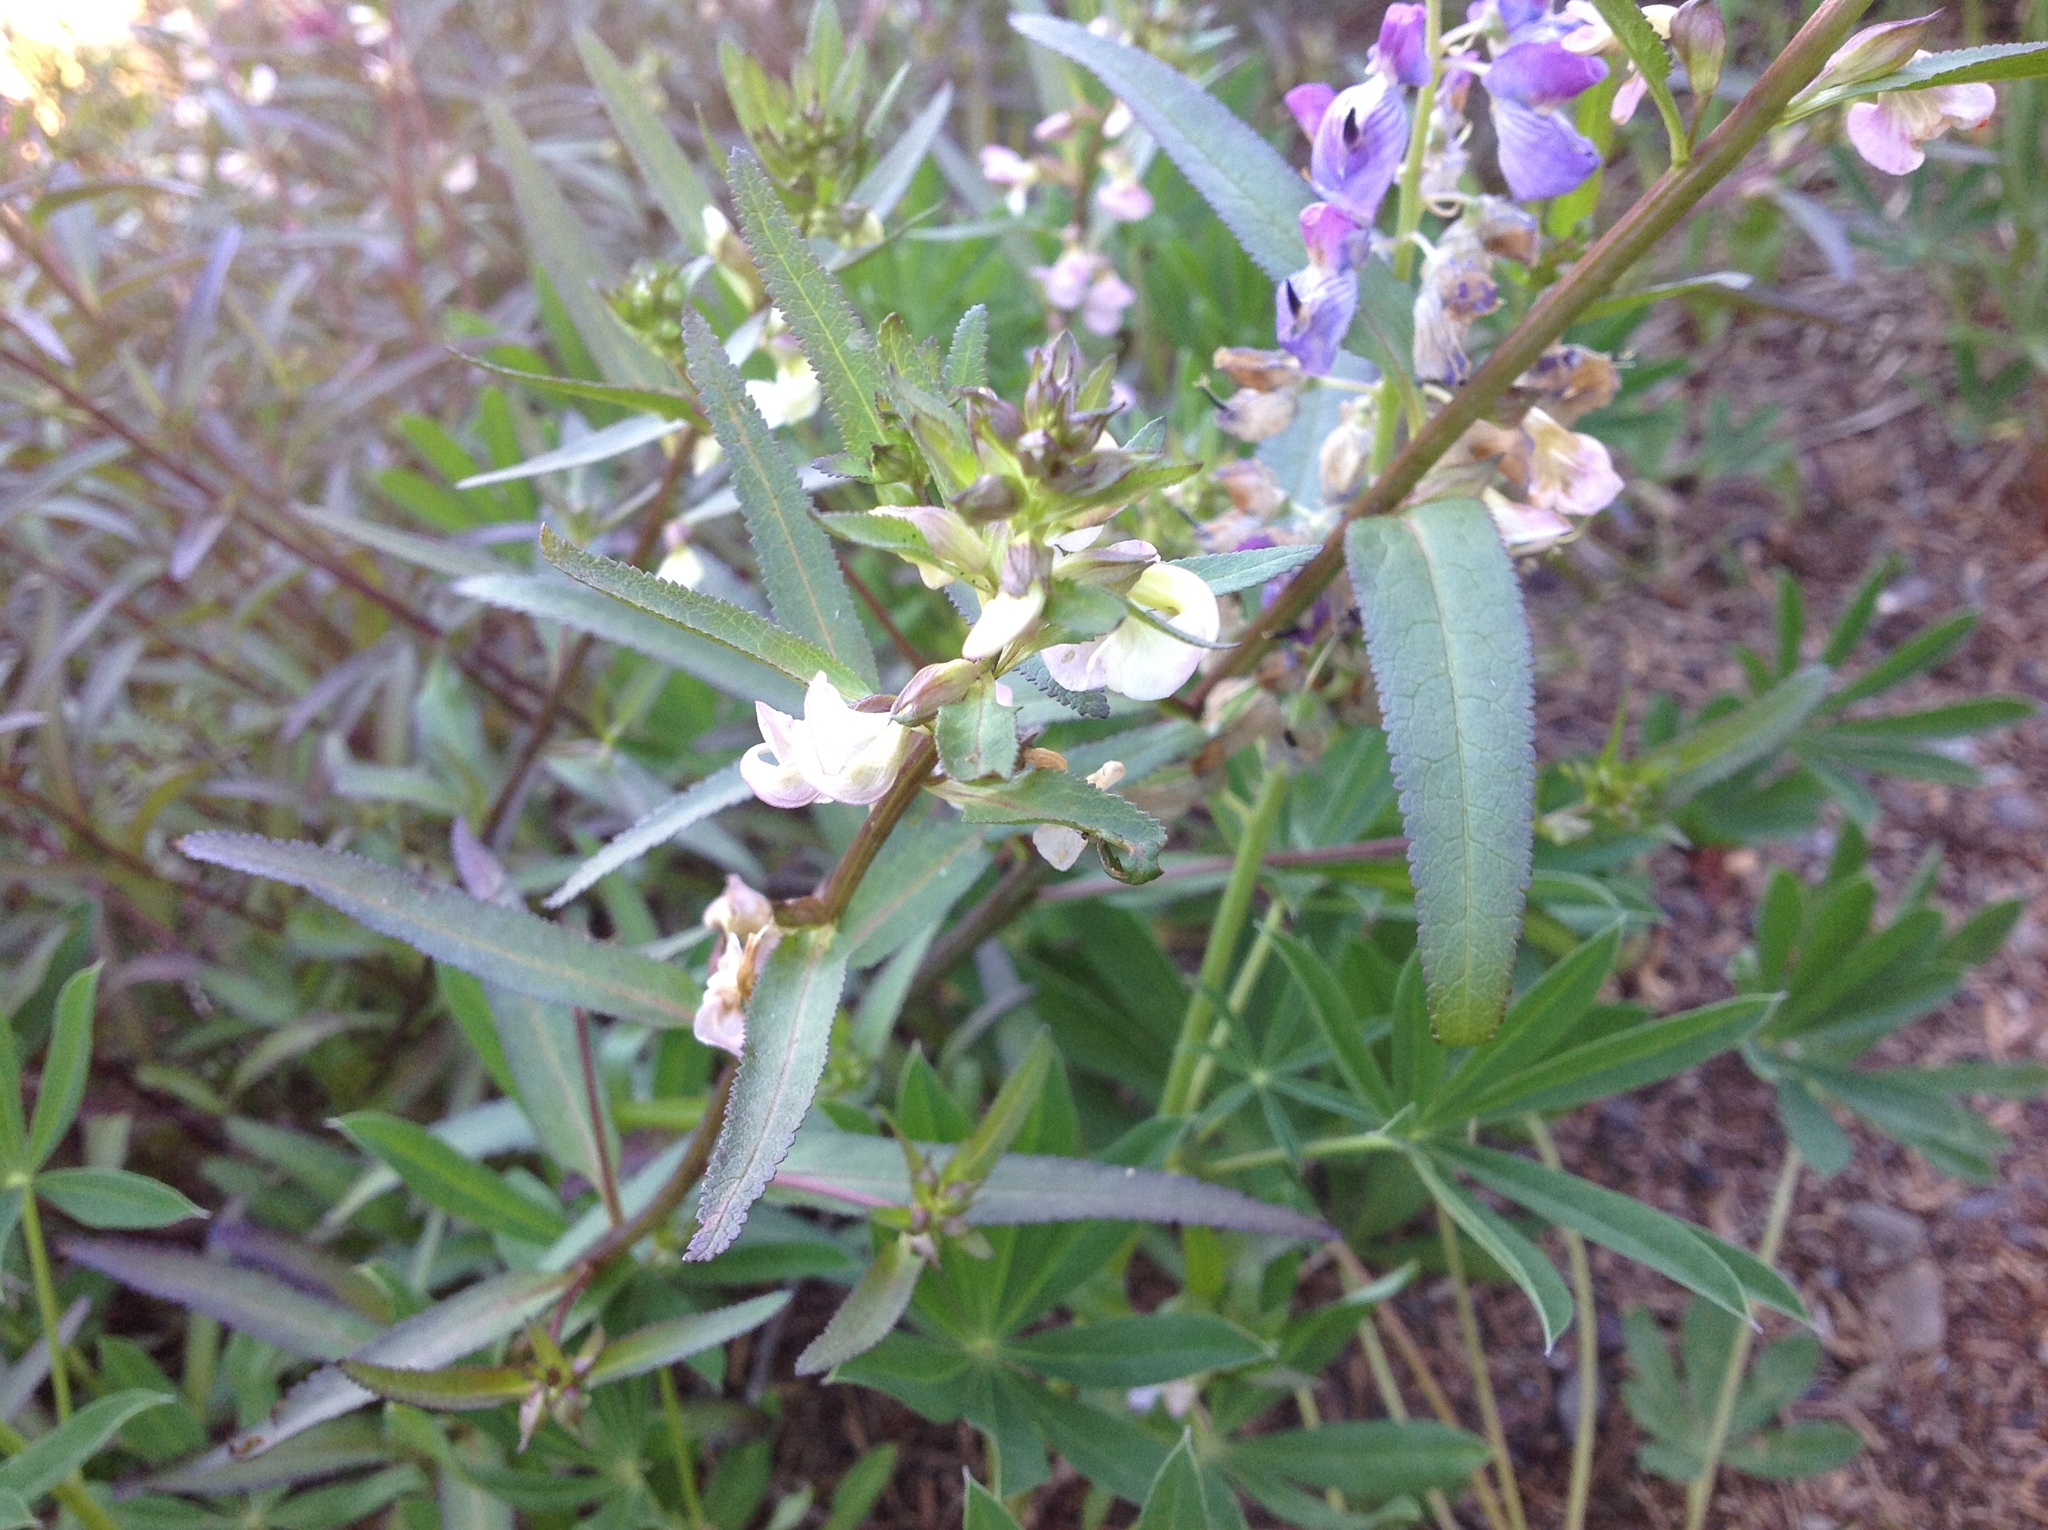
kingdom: Plantae
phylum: Tracheophyta
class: Magnoliopsida
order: Lamiales
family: Orobanchaceae
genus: Pedicularis
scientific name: Pedicularis racemosa
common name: Leafy lousewort
